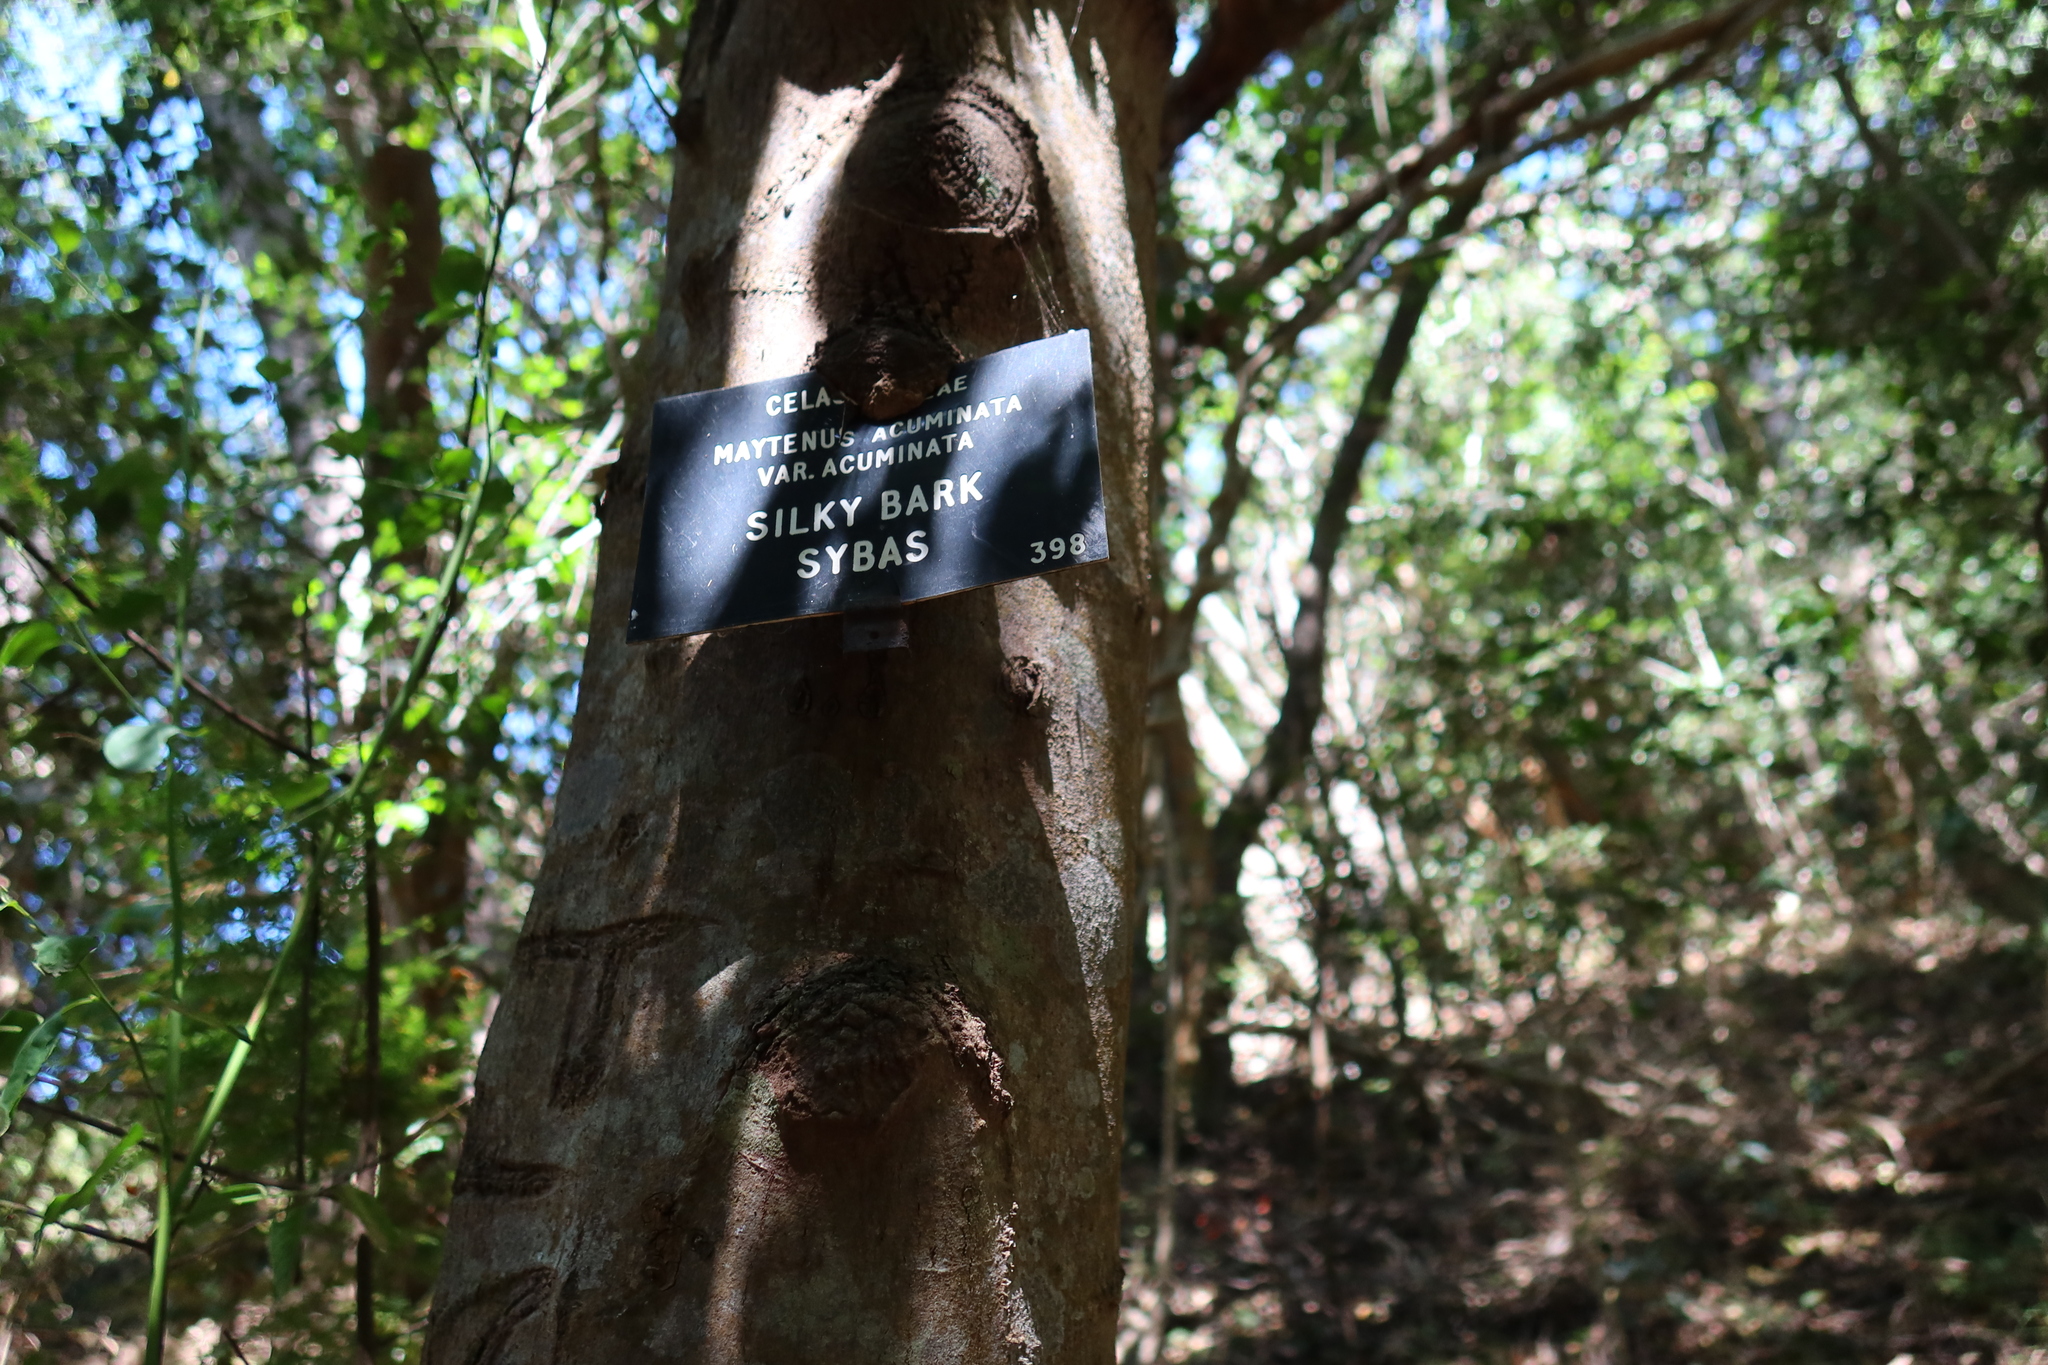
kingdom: Plantae
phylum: Tracheophyta
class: Magnoliopsida
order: Celastrales
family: Celastraceae
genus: Gymnosporia
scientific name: Gymnosporia acuminata
